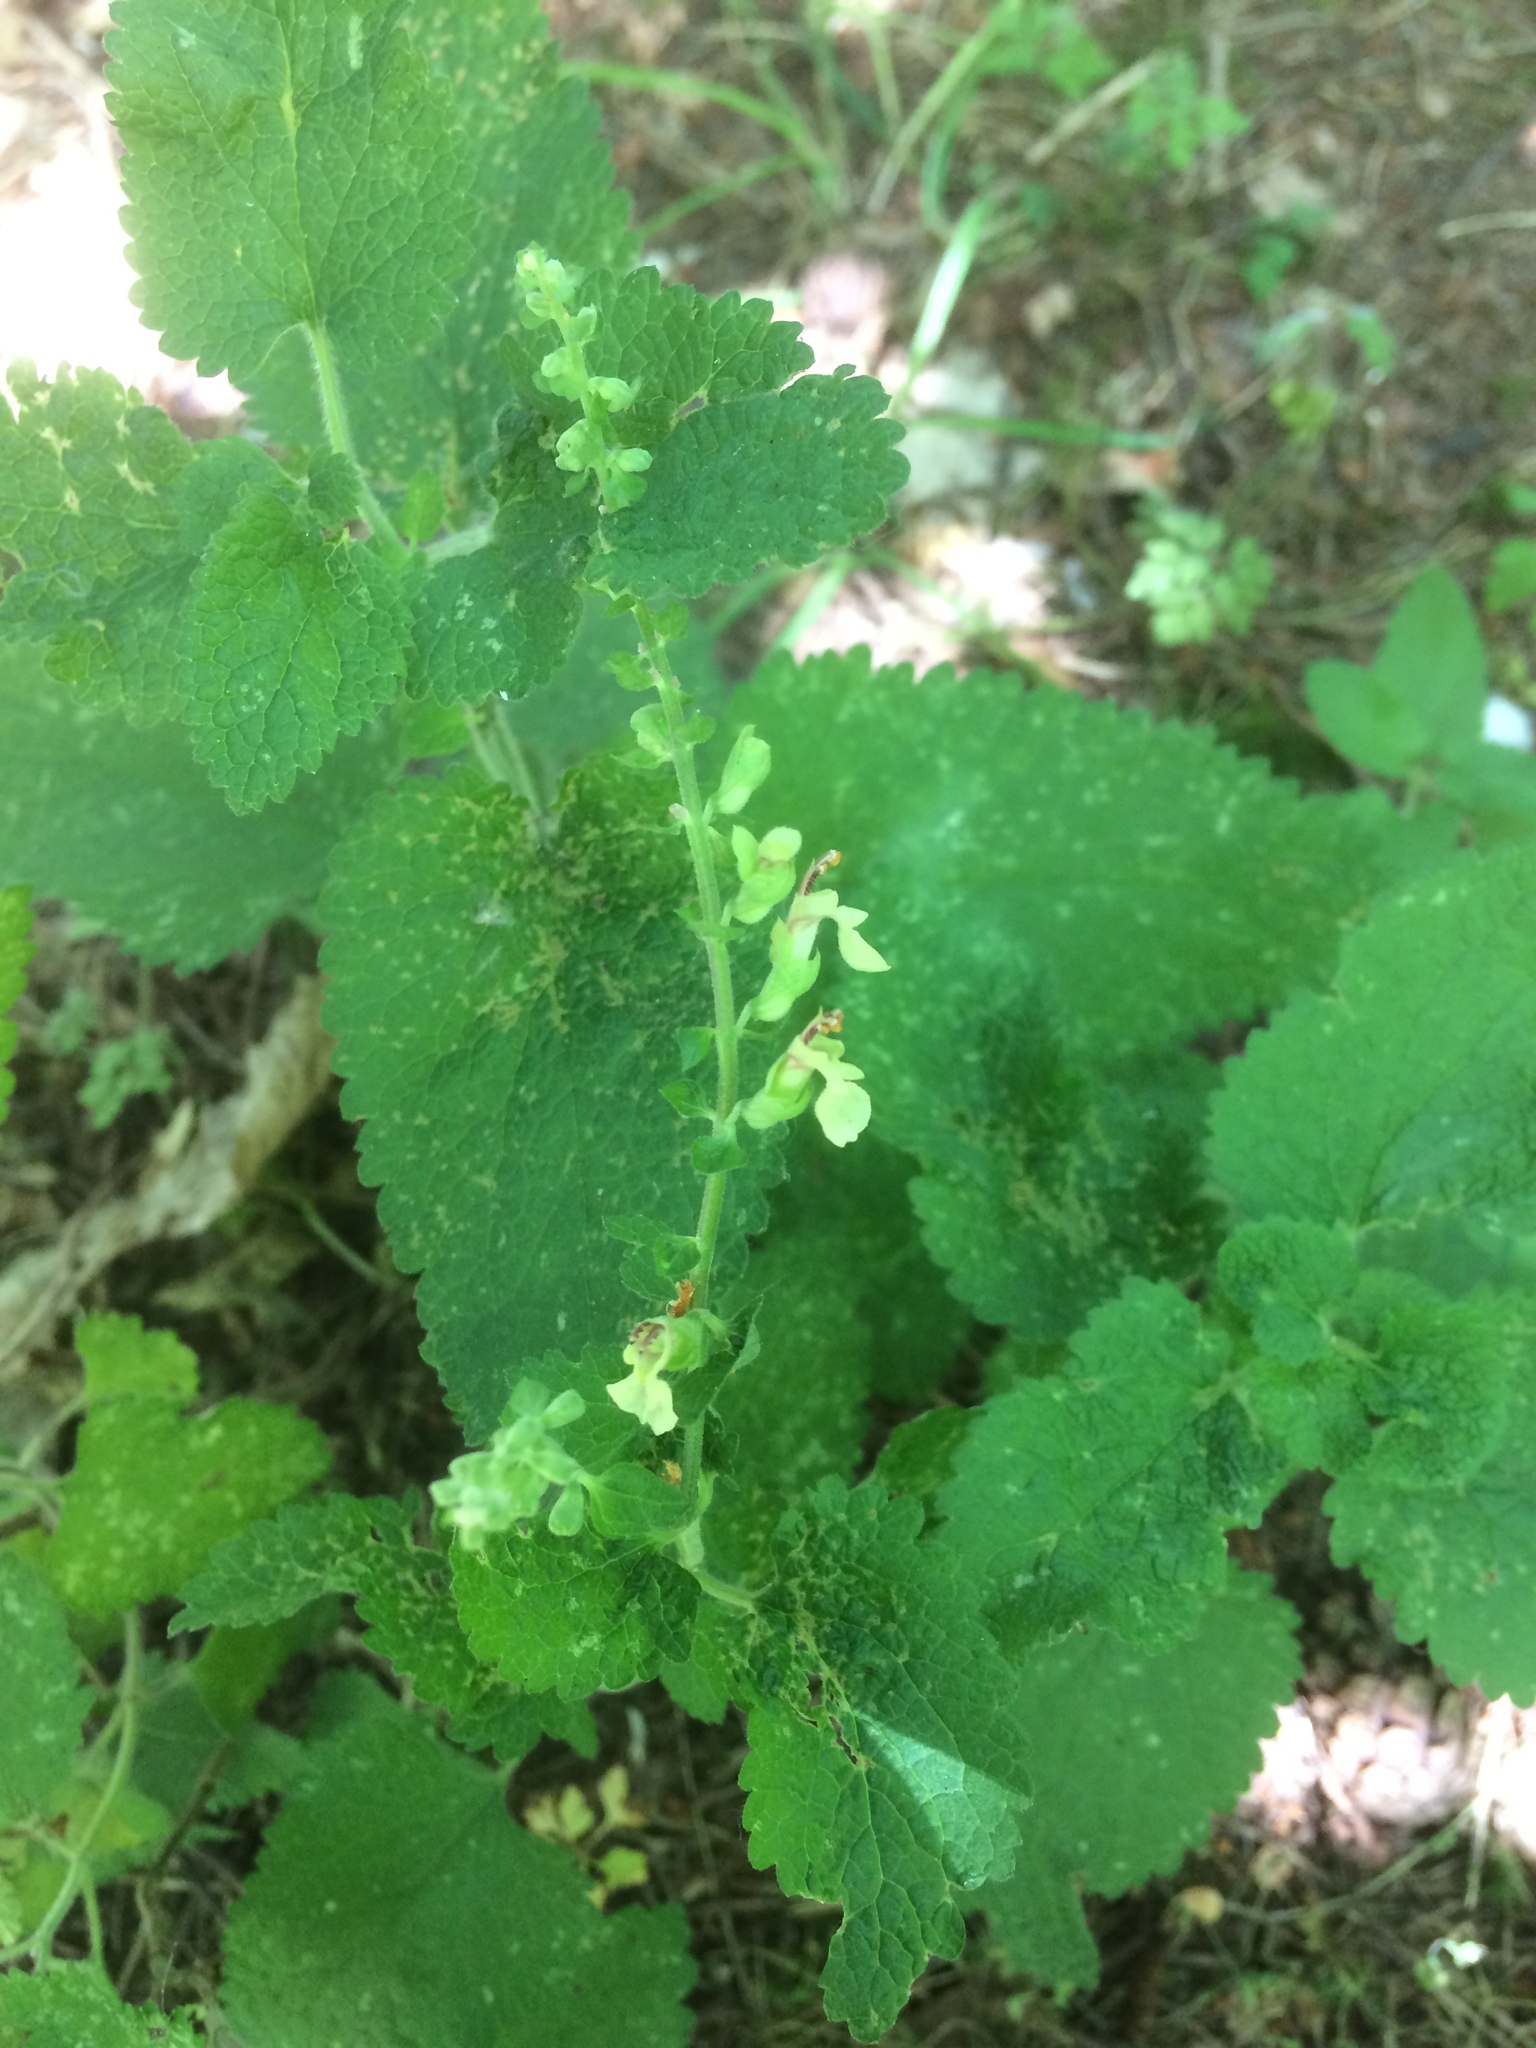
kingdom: Plantae
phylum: Tracheophyta
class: Magnoliopsida
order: Lamiales
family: Lamiaceae
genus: Teucrium
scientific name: Teucrium scorodonia
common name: Woodland germander
